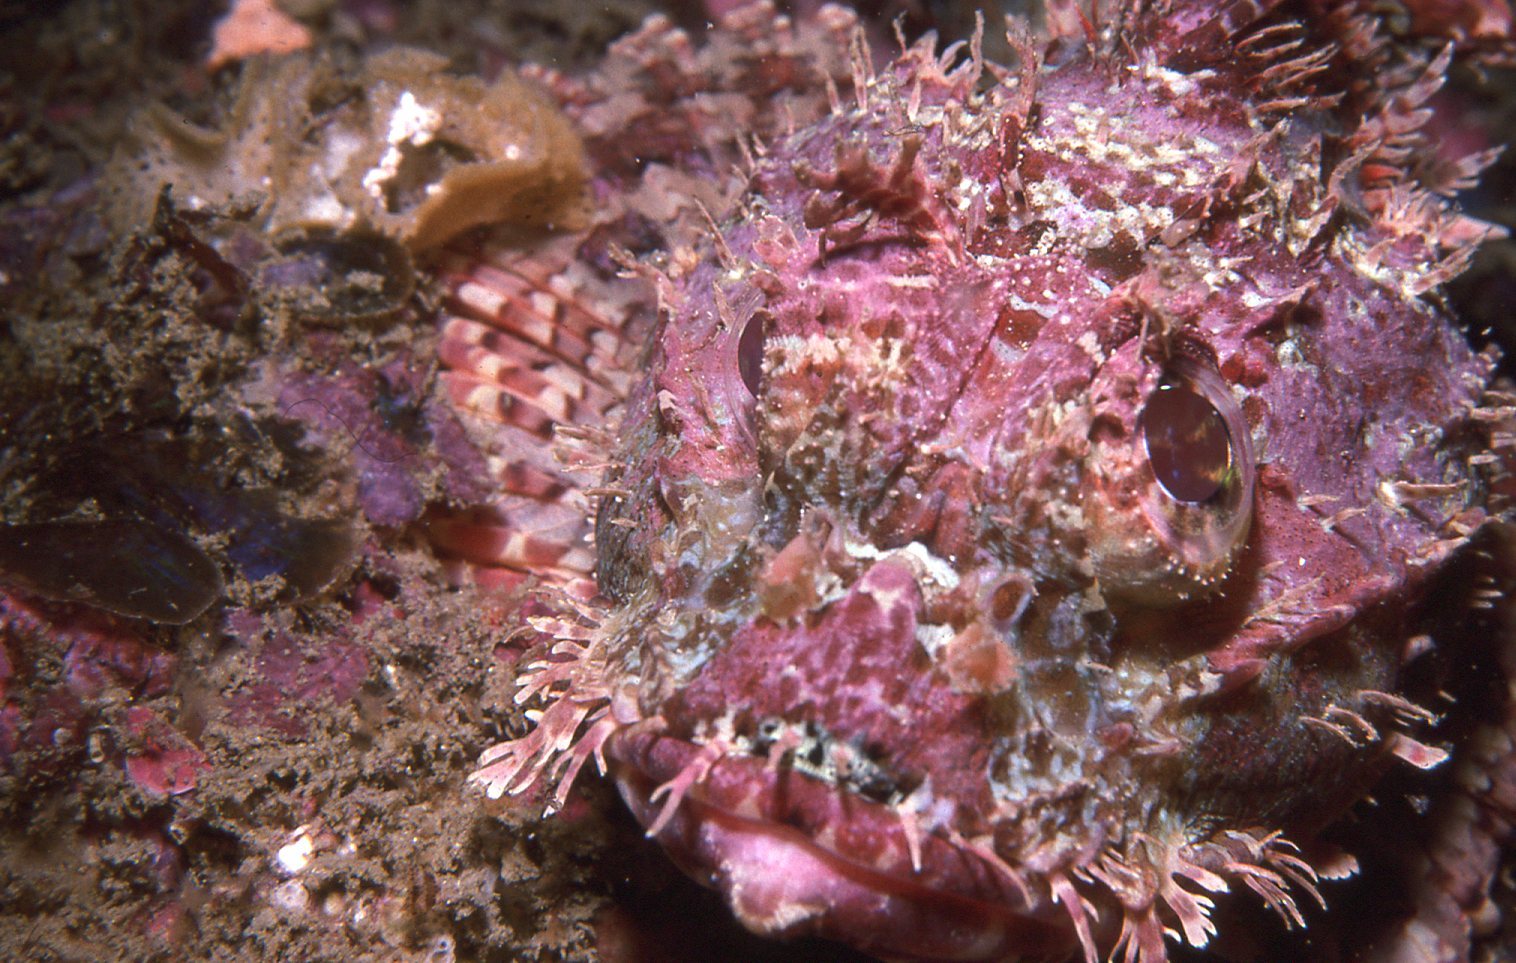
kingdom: Animalia
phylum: Chordata
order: Scorpaeniformes
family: Scorpaenidae
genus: Scorpaena
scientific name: Scorpaena jacksoniensis
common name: Eastern red scorpionfish
